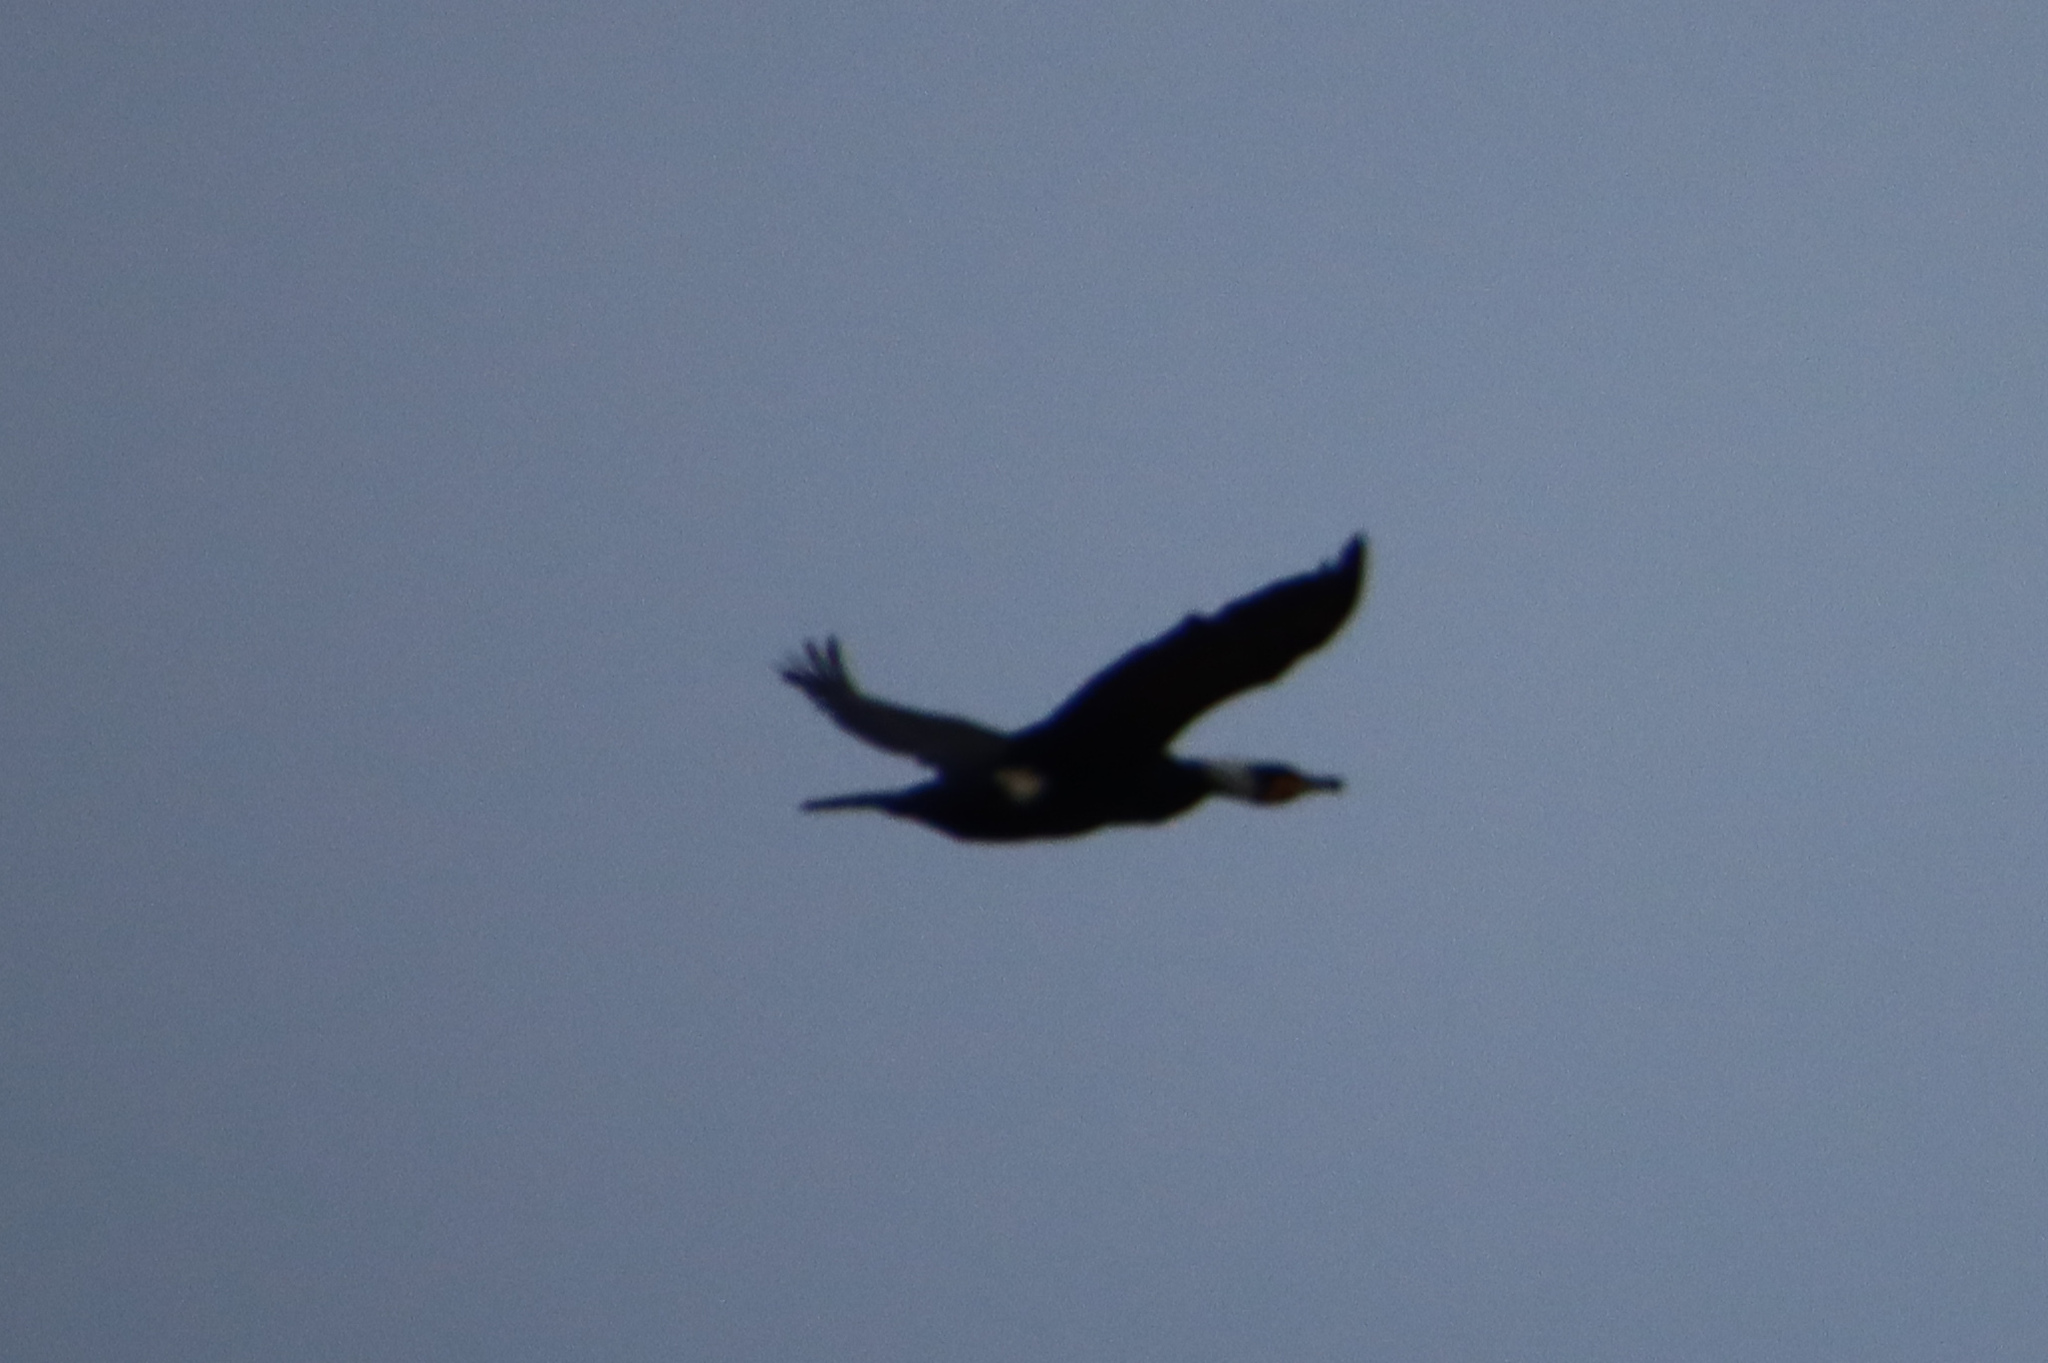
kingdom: Animalia
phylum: Chordata
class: Aves
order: Suliformes
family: Phalacrocoracidae
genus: Phalacrocorax
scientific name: Phalacrocorax carbo
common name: Great cormorant
